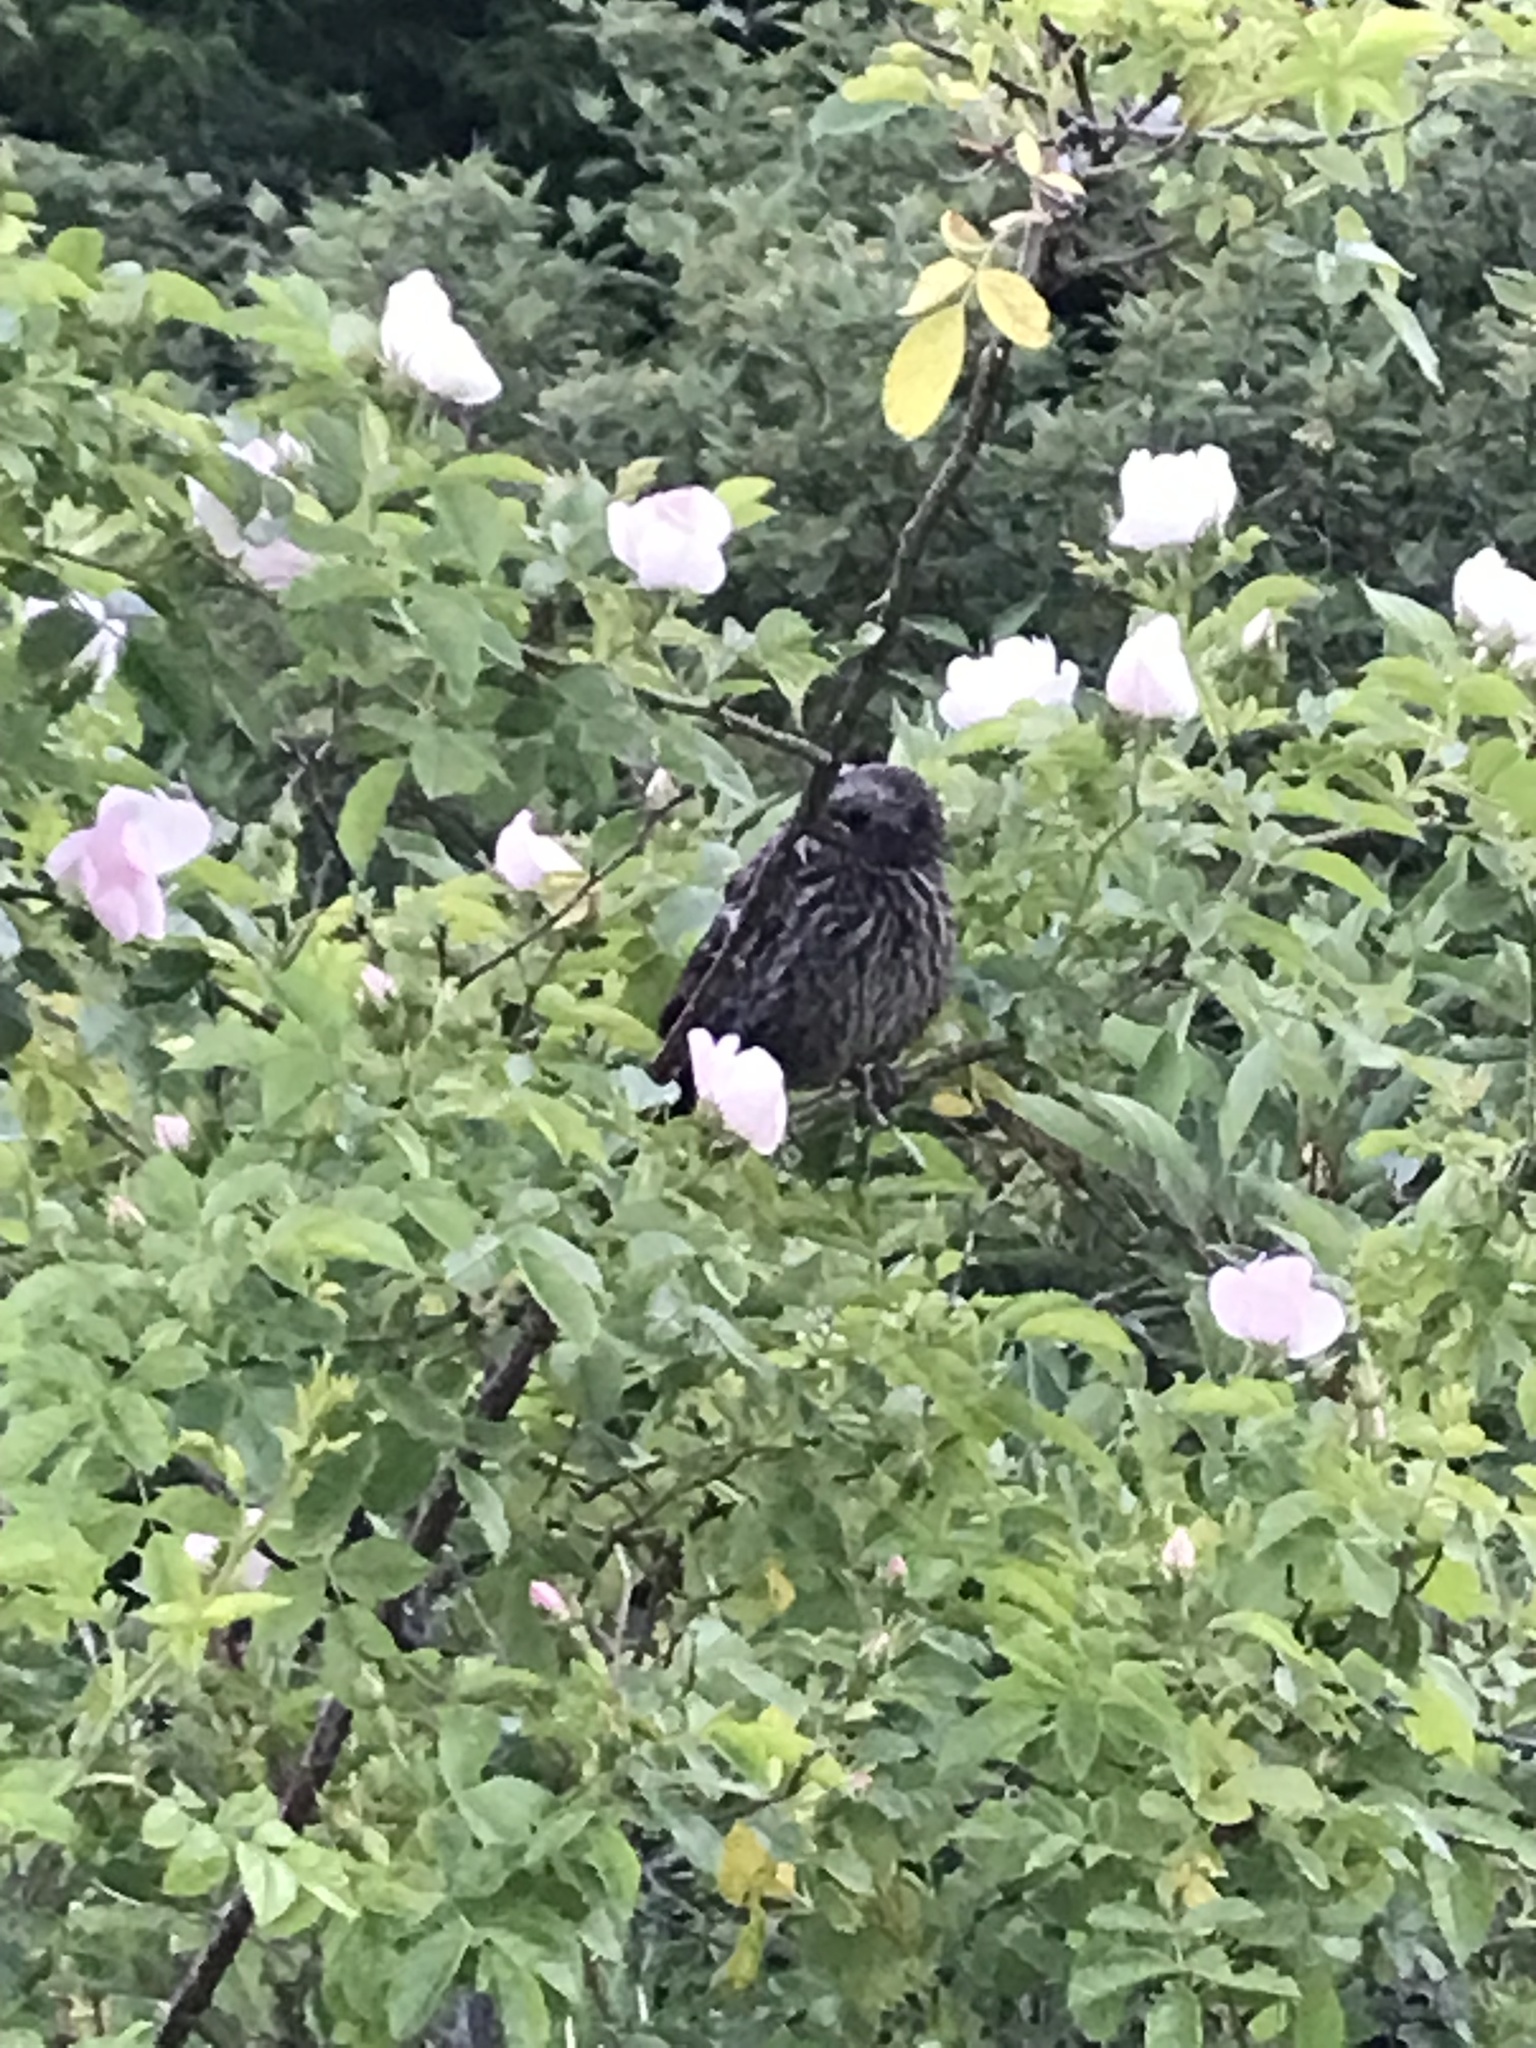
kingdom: Animalia
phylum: Chordata
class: Aves
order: Passeriformes
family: Icteridae
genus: Agelaius
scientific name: Agelaius phoeniceus
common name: Red-winged blackbird
